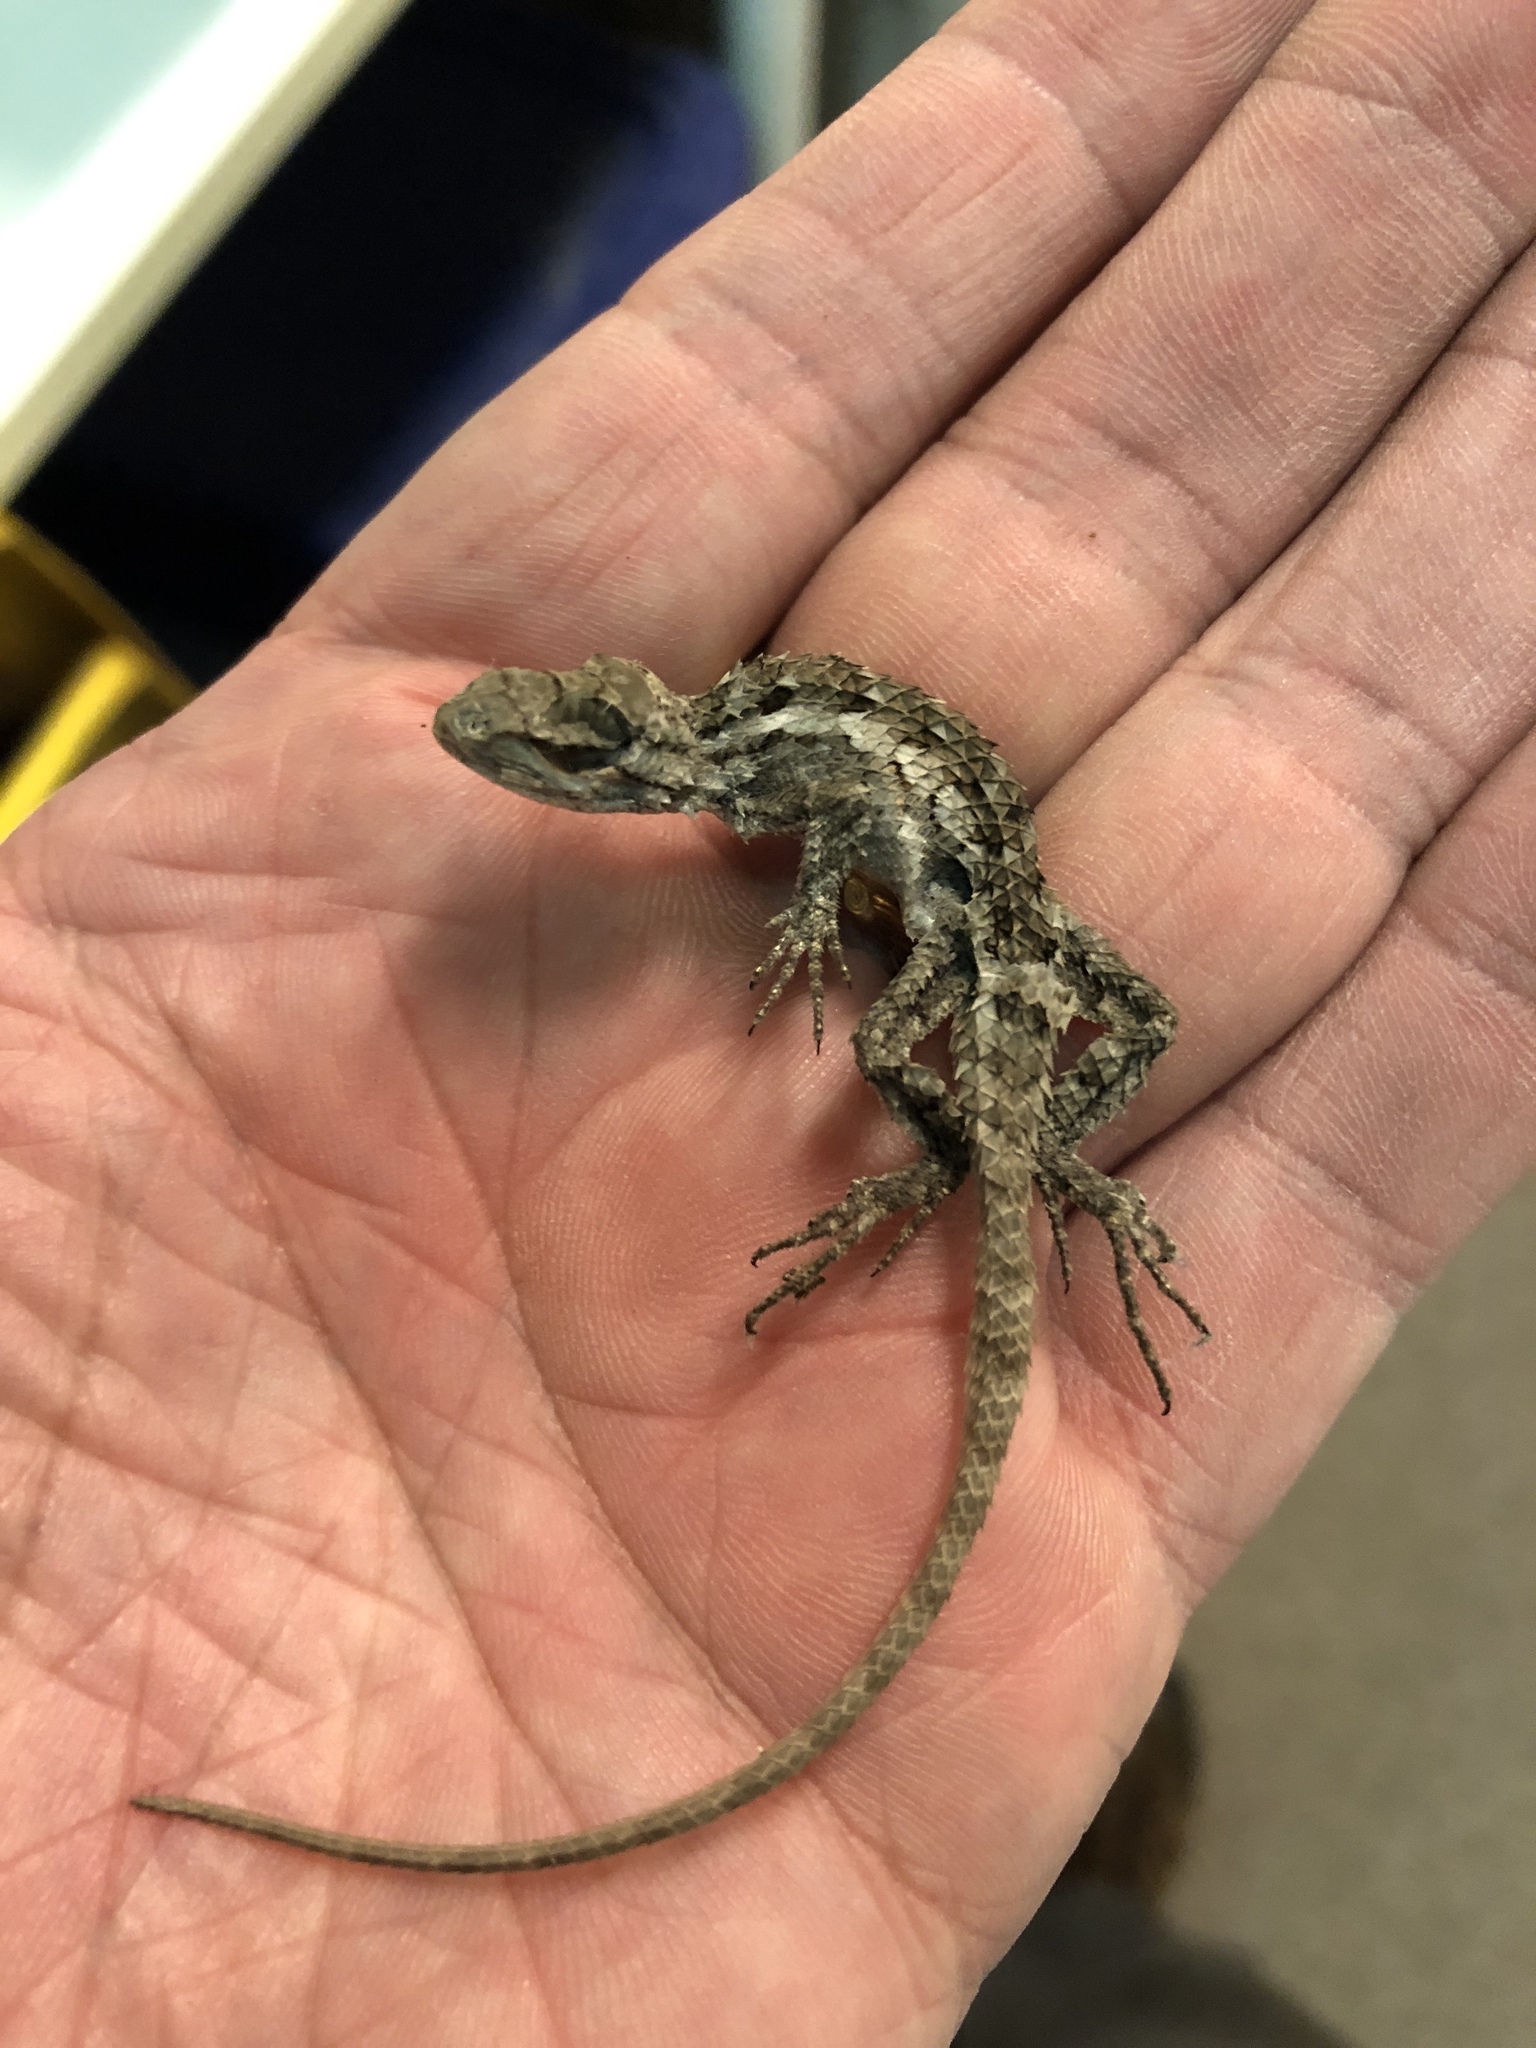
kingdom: Animalia
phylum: Chordata
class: Squamata
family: Phrynosomatidae
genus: Sceloporus
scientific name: Sceloporus olivaceus
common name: Texas spiny lizard
